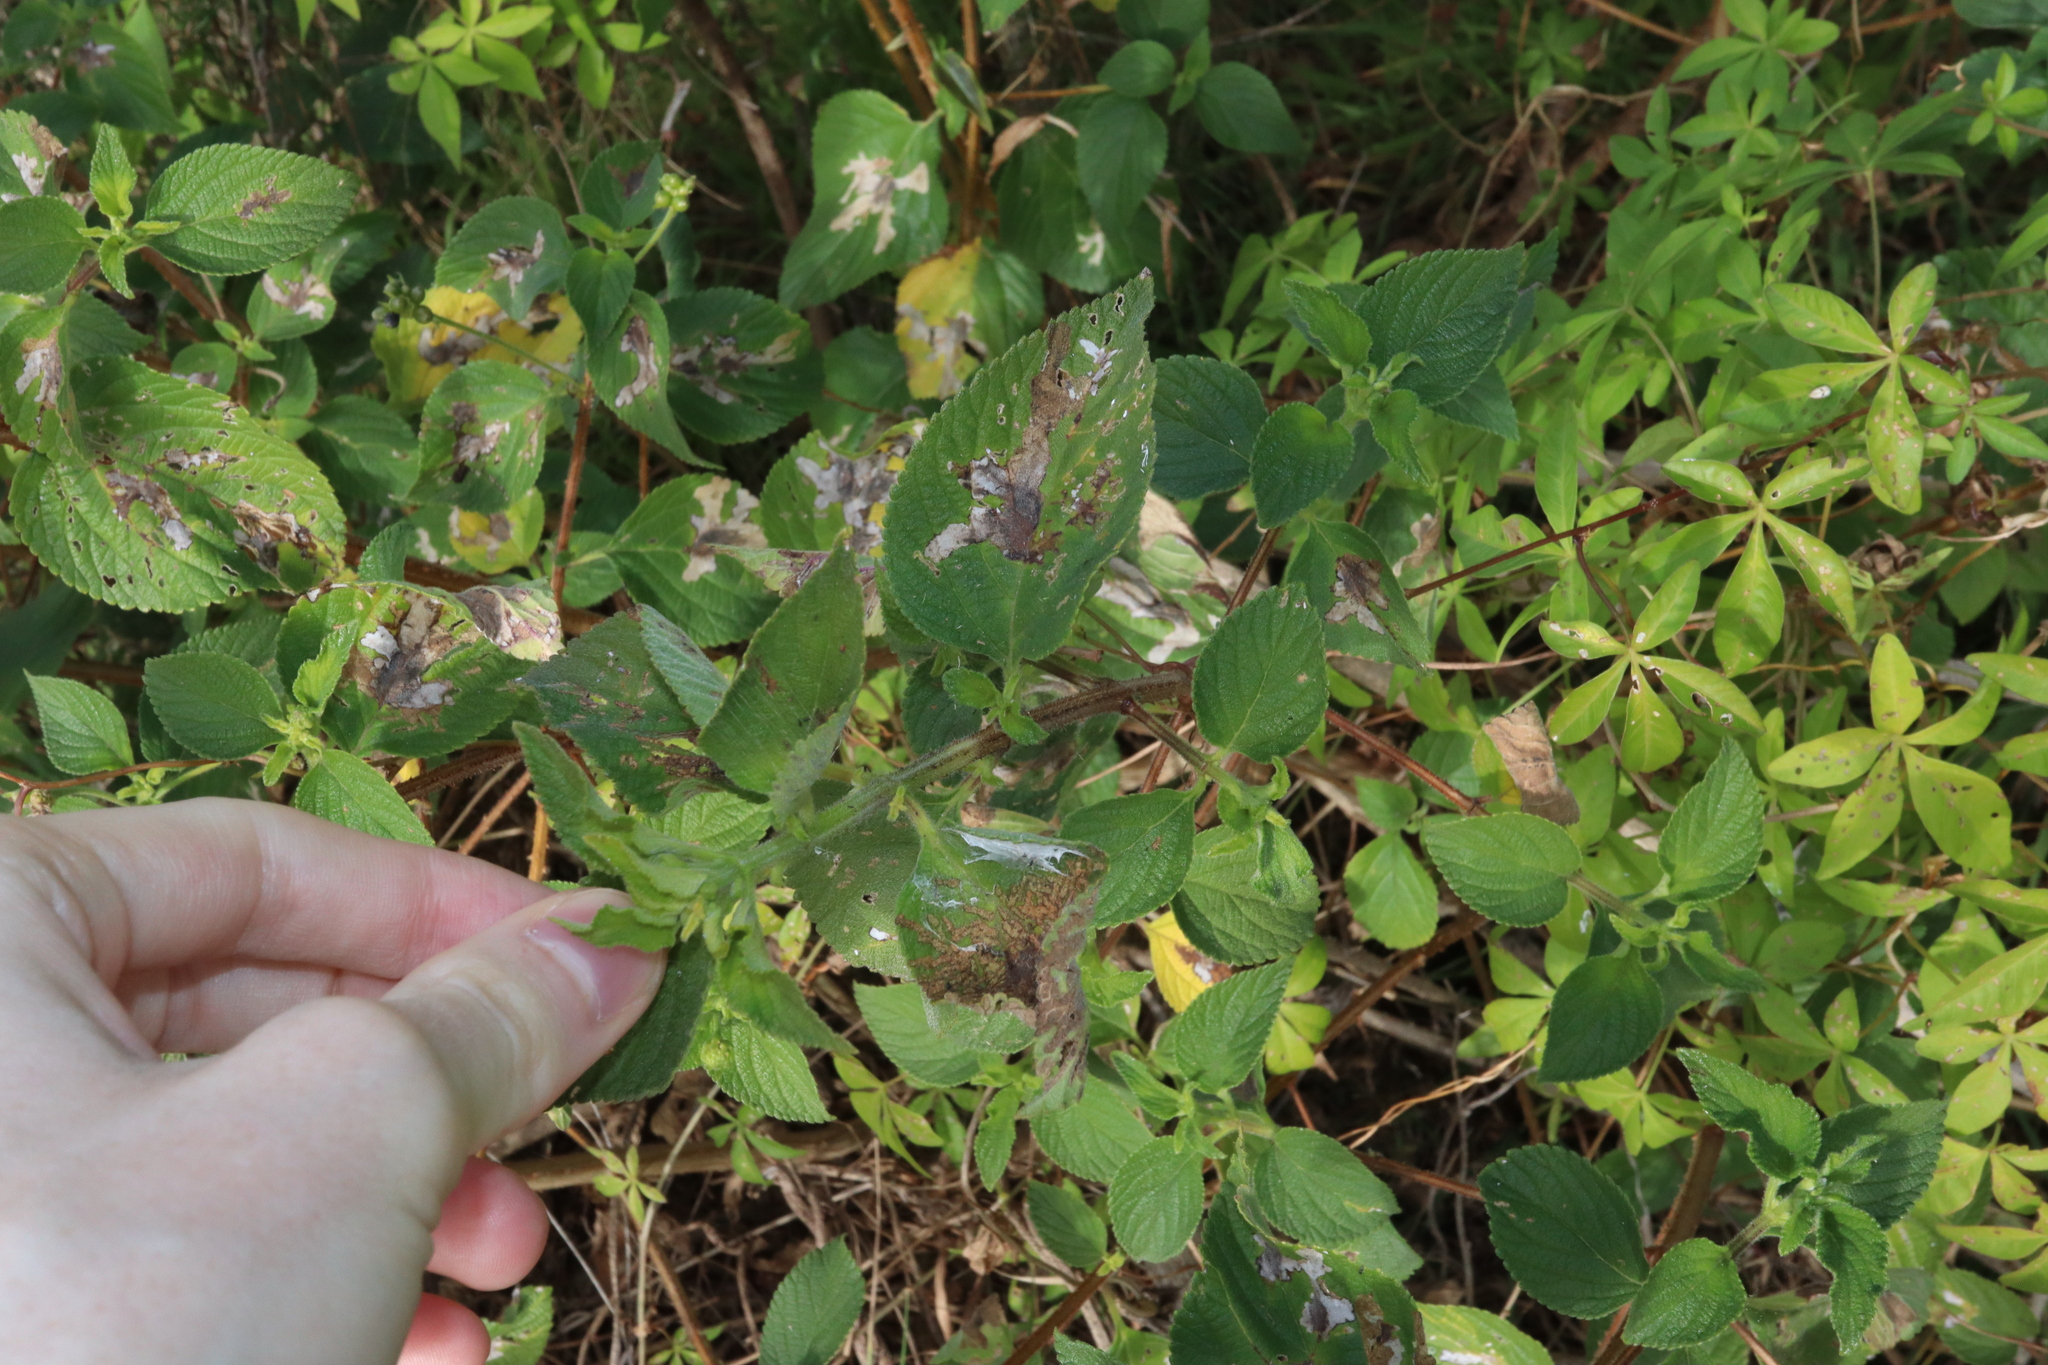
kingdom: Plantae
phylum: Tracheophyta
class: Magnoliopsida
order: Lamiales
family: Verbenaceae
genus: Lantana
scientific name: Lantana camara
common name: Lantana
